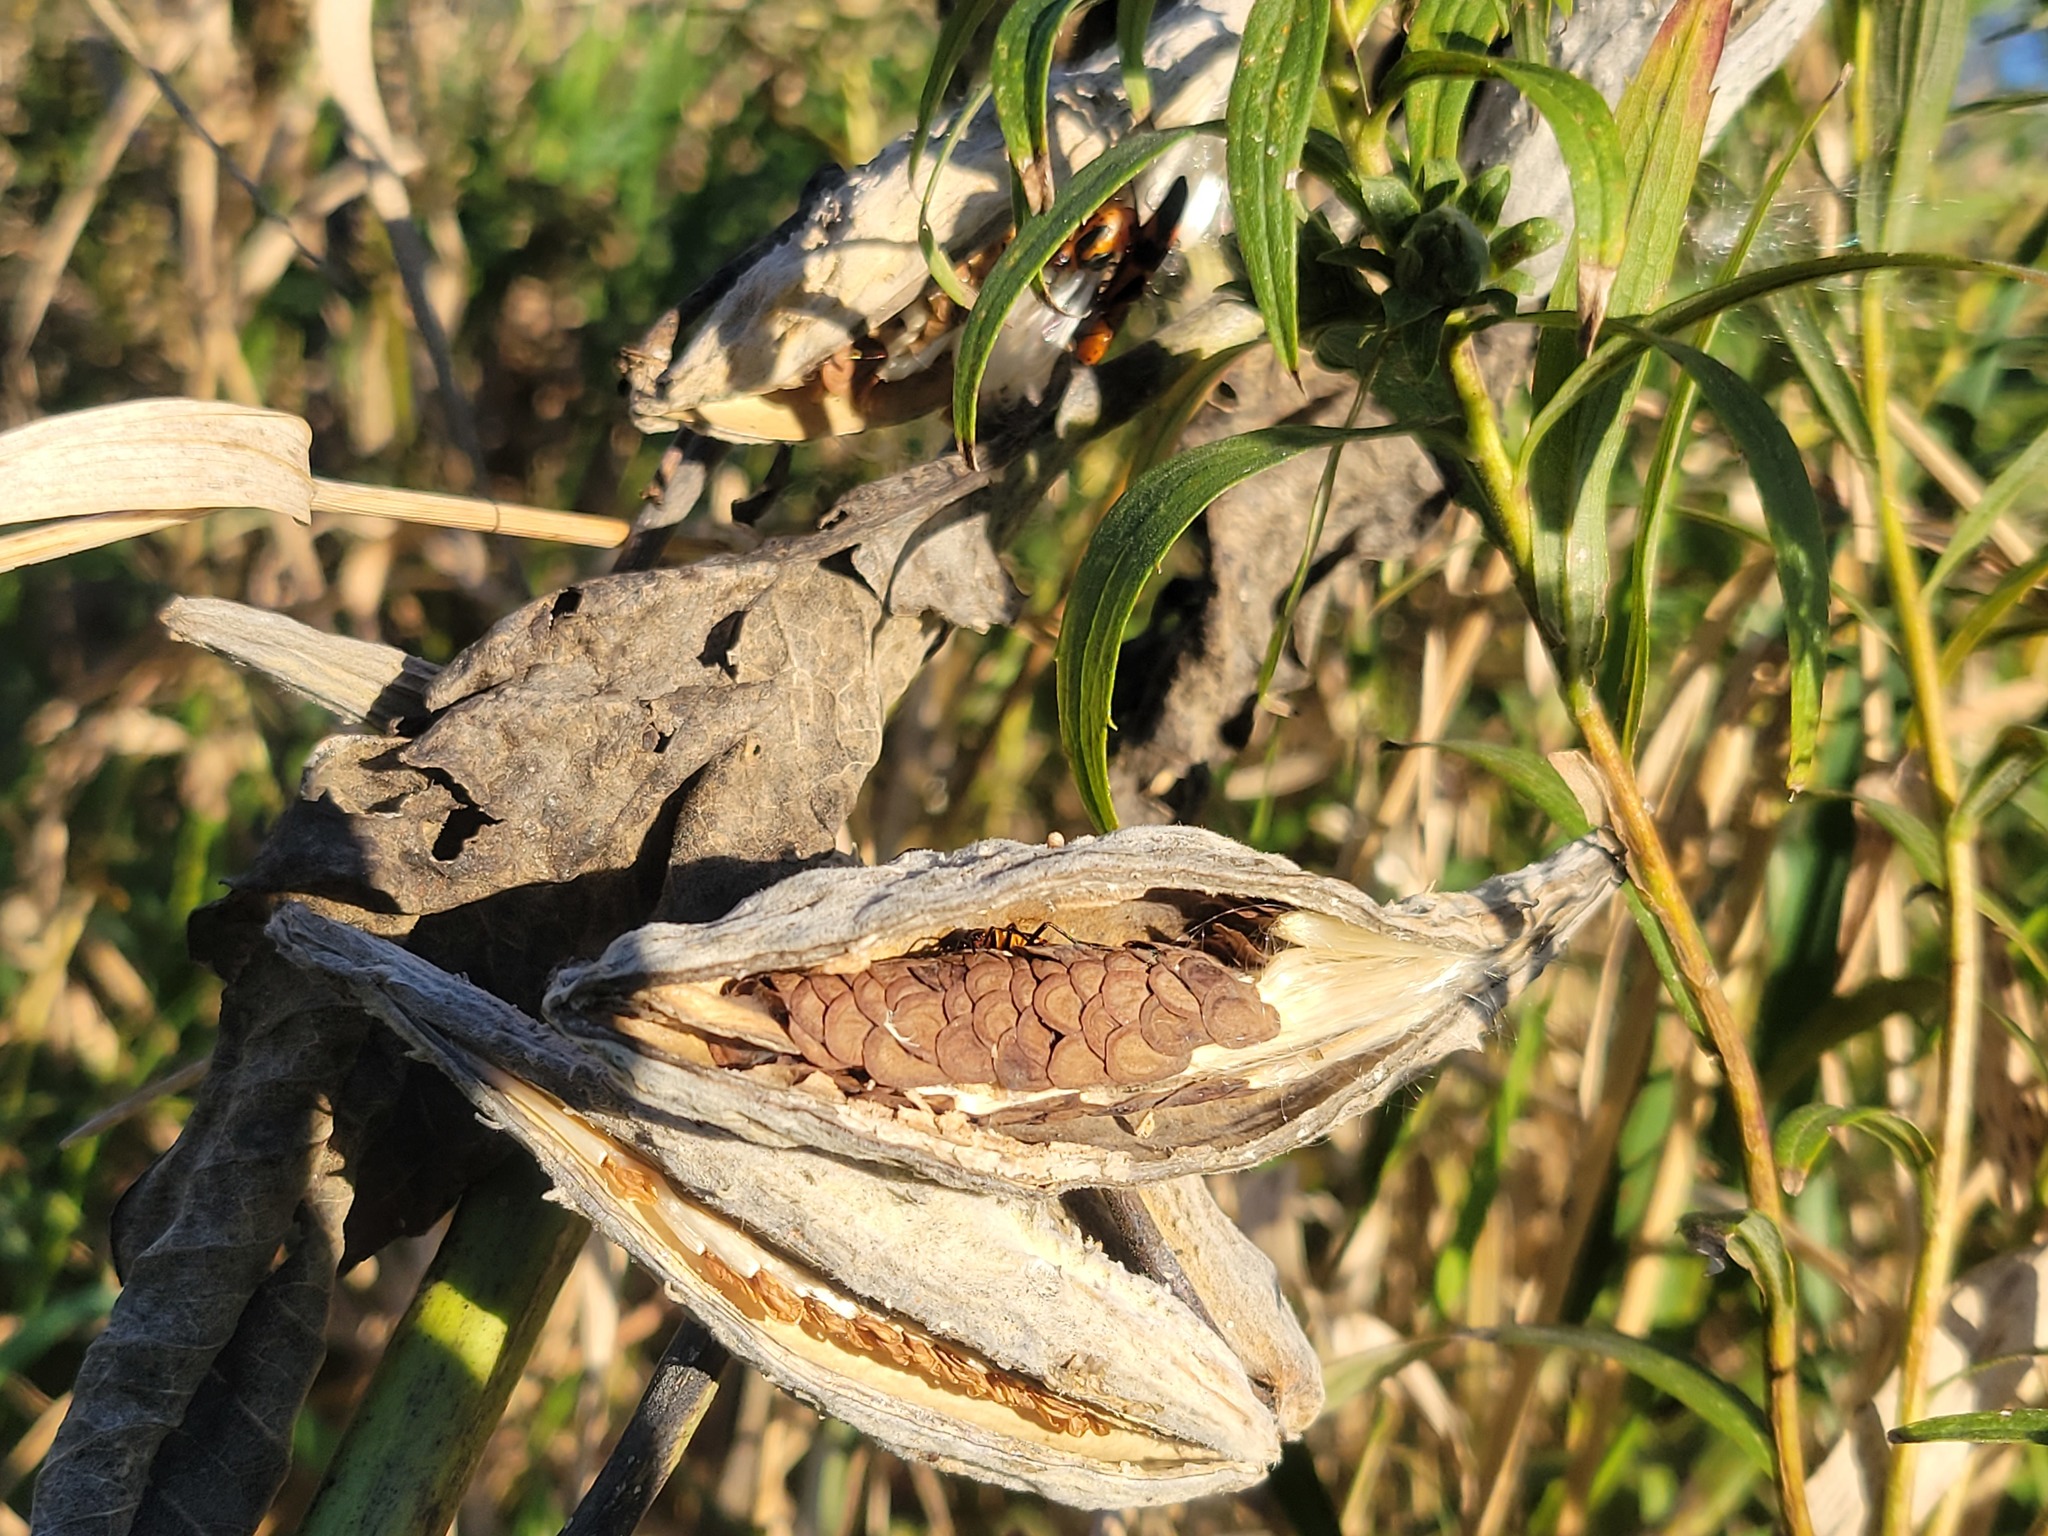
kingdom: Animalia
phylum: Arthropoda
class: Insecta
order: Hemiptera
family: Lygaeidae
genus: Oncopeltus
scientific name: Oncopeltus fasciatus
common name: Large milkweed bug
